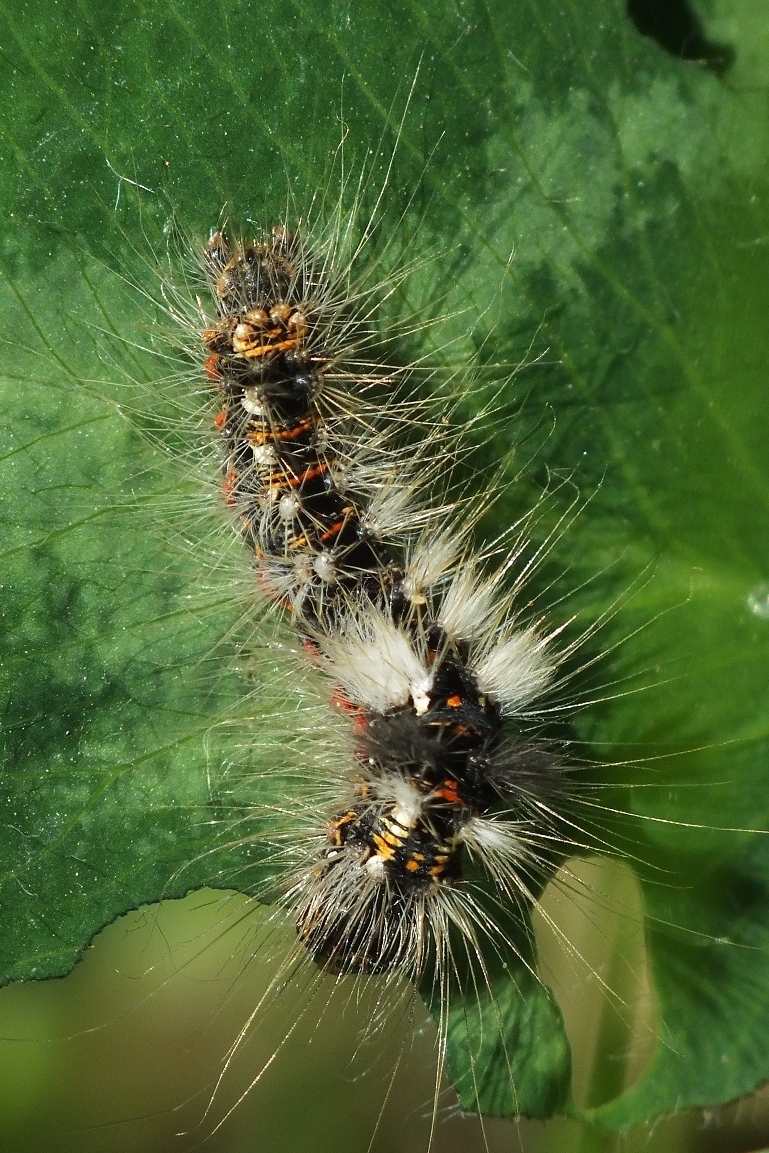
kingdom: Animalia
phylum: Arthropoda
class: Insecta
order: Lepidoptera
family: Noctuidae
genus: Acronicta
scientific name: Acronicta rumicis
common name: Knot grass
